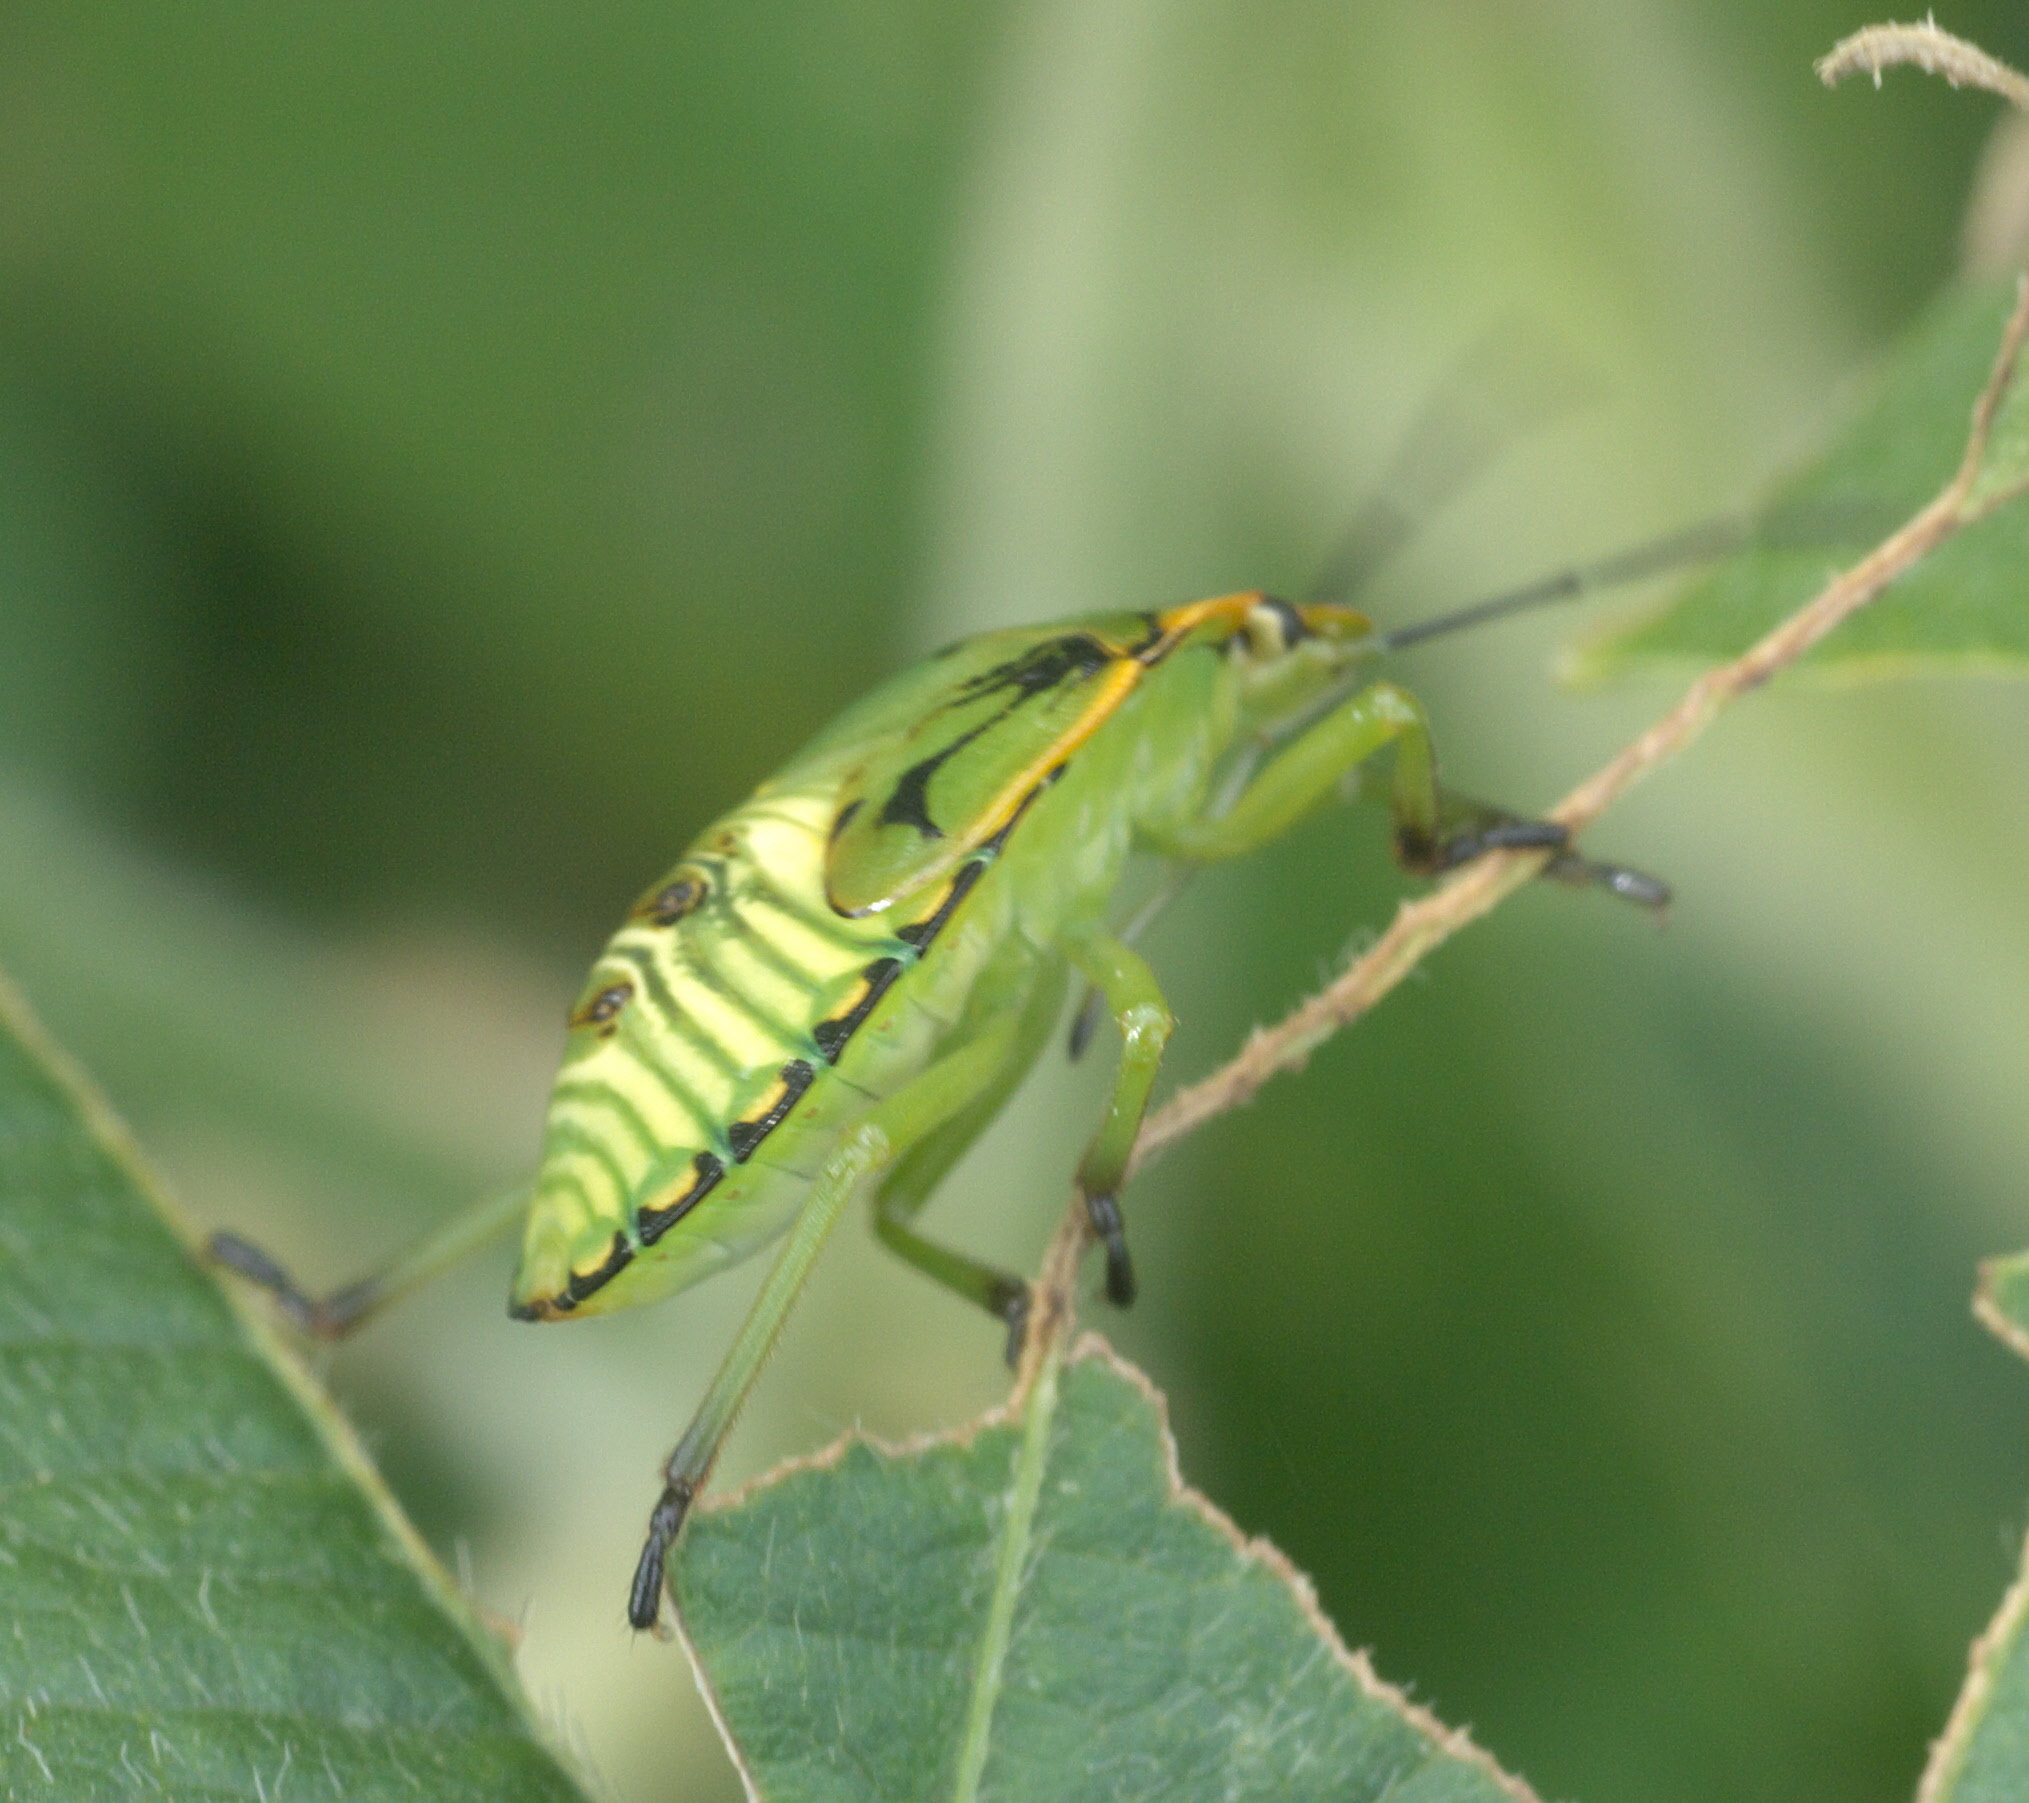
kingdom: Animalia
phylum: Arthropoda
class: Insecta
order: Hemiptera
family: Pentatomidae
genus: Chinavia
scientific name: Chinavia hilaris
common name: Green stink bug
